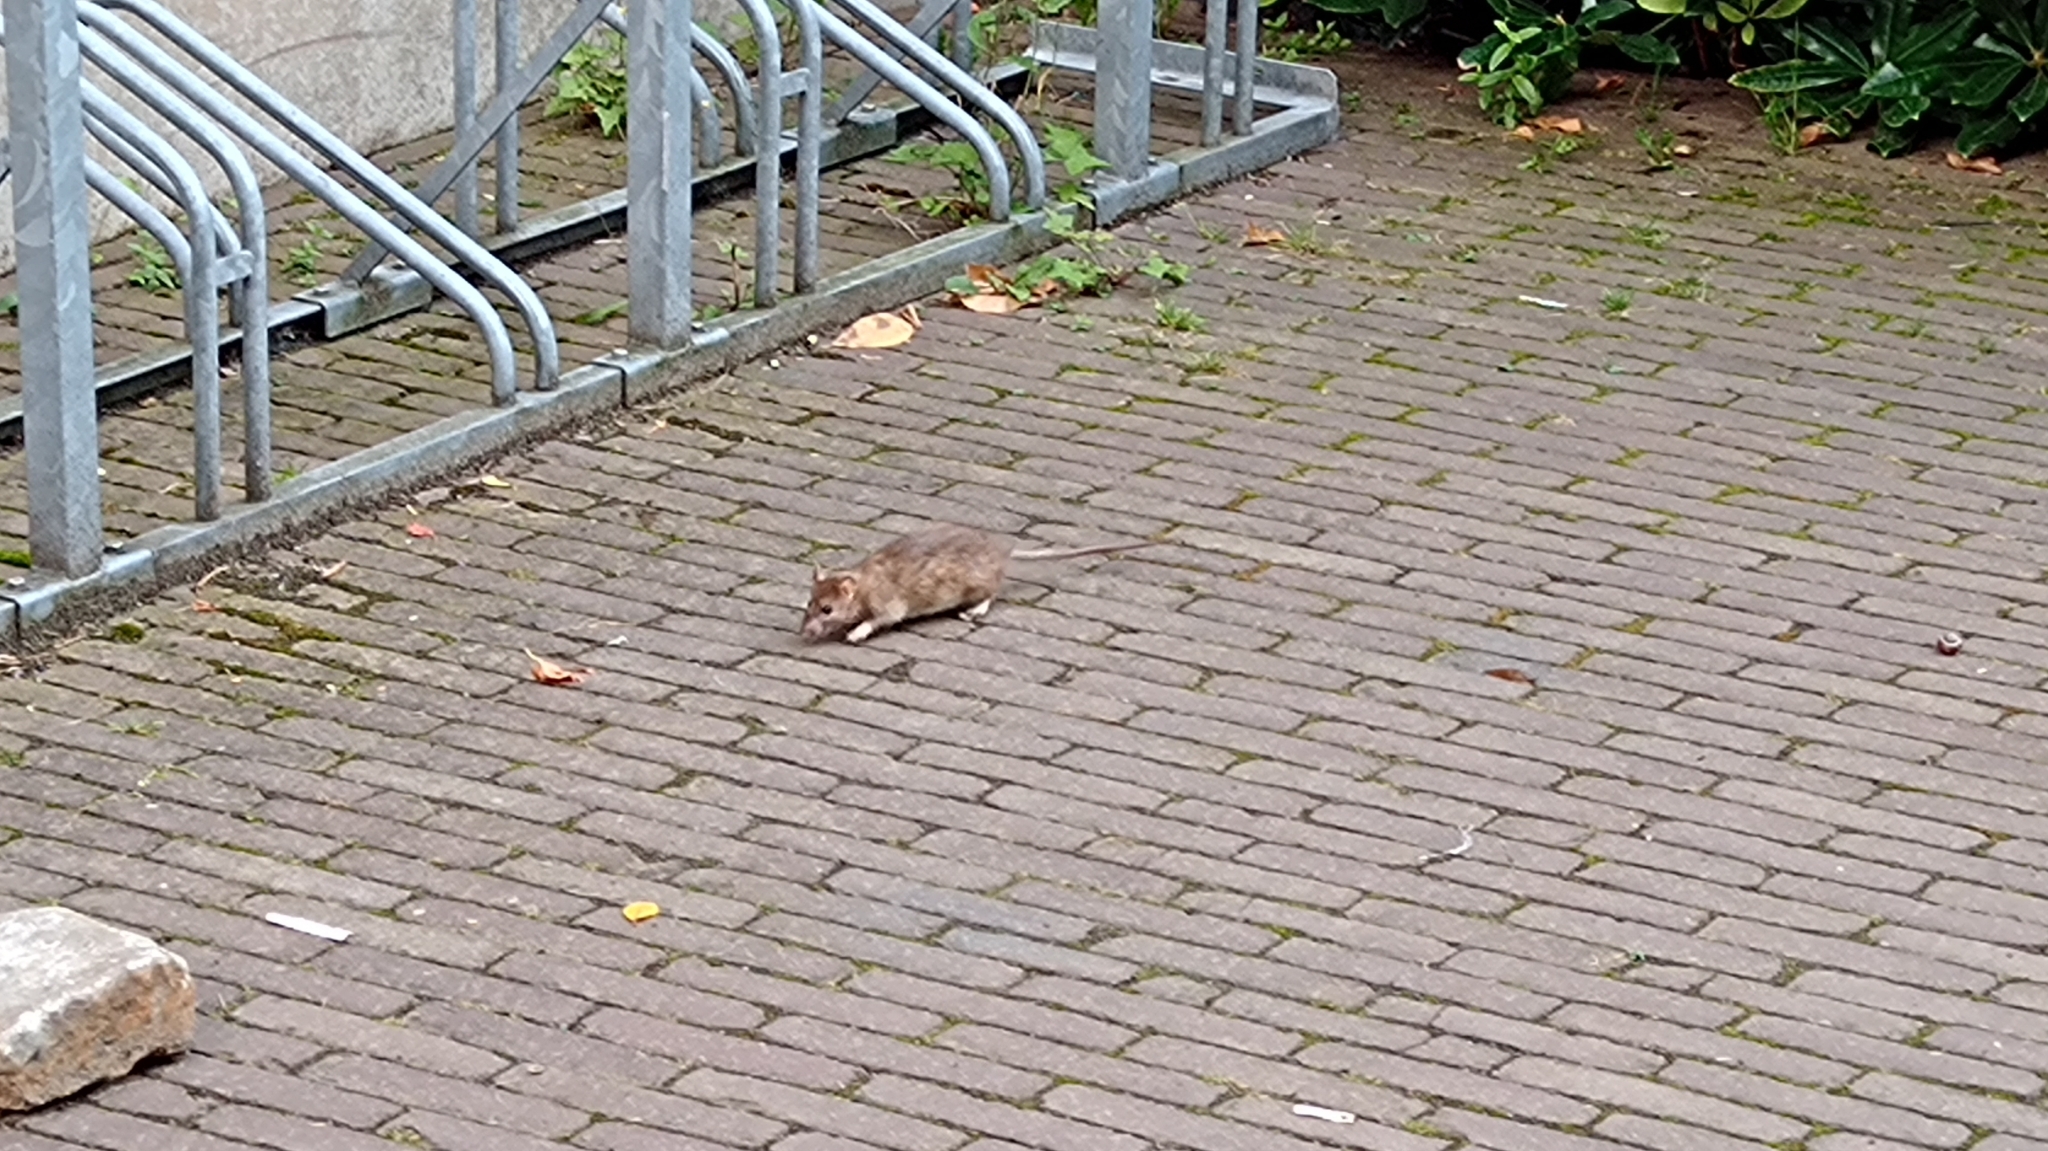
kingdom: Animalia
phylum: Chordata
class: Mammalia
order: Rodentia
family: Muridae
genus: Rattus
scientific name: Rattus norvegicus
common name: Brown rat
